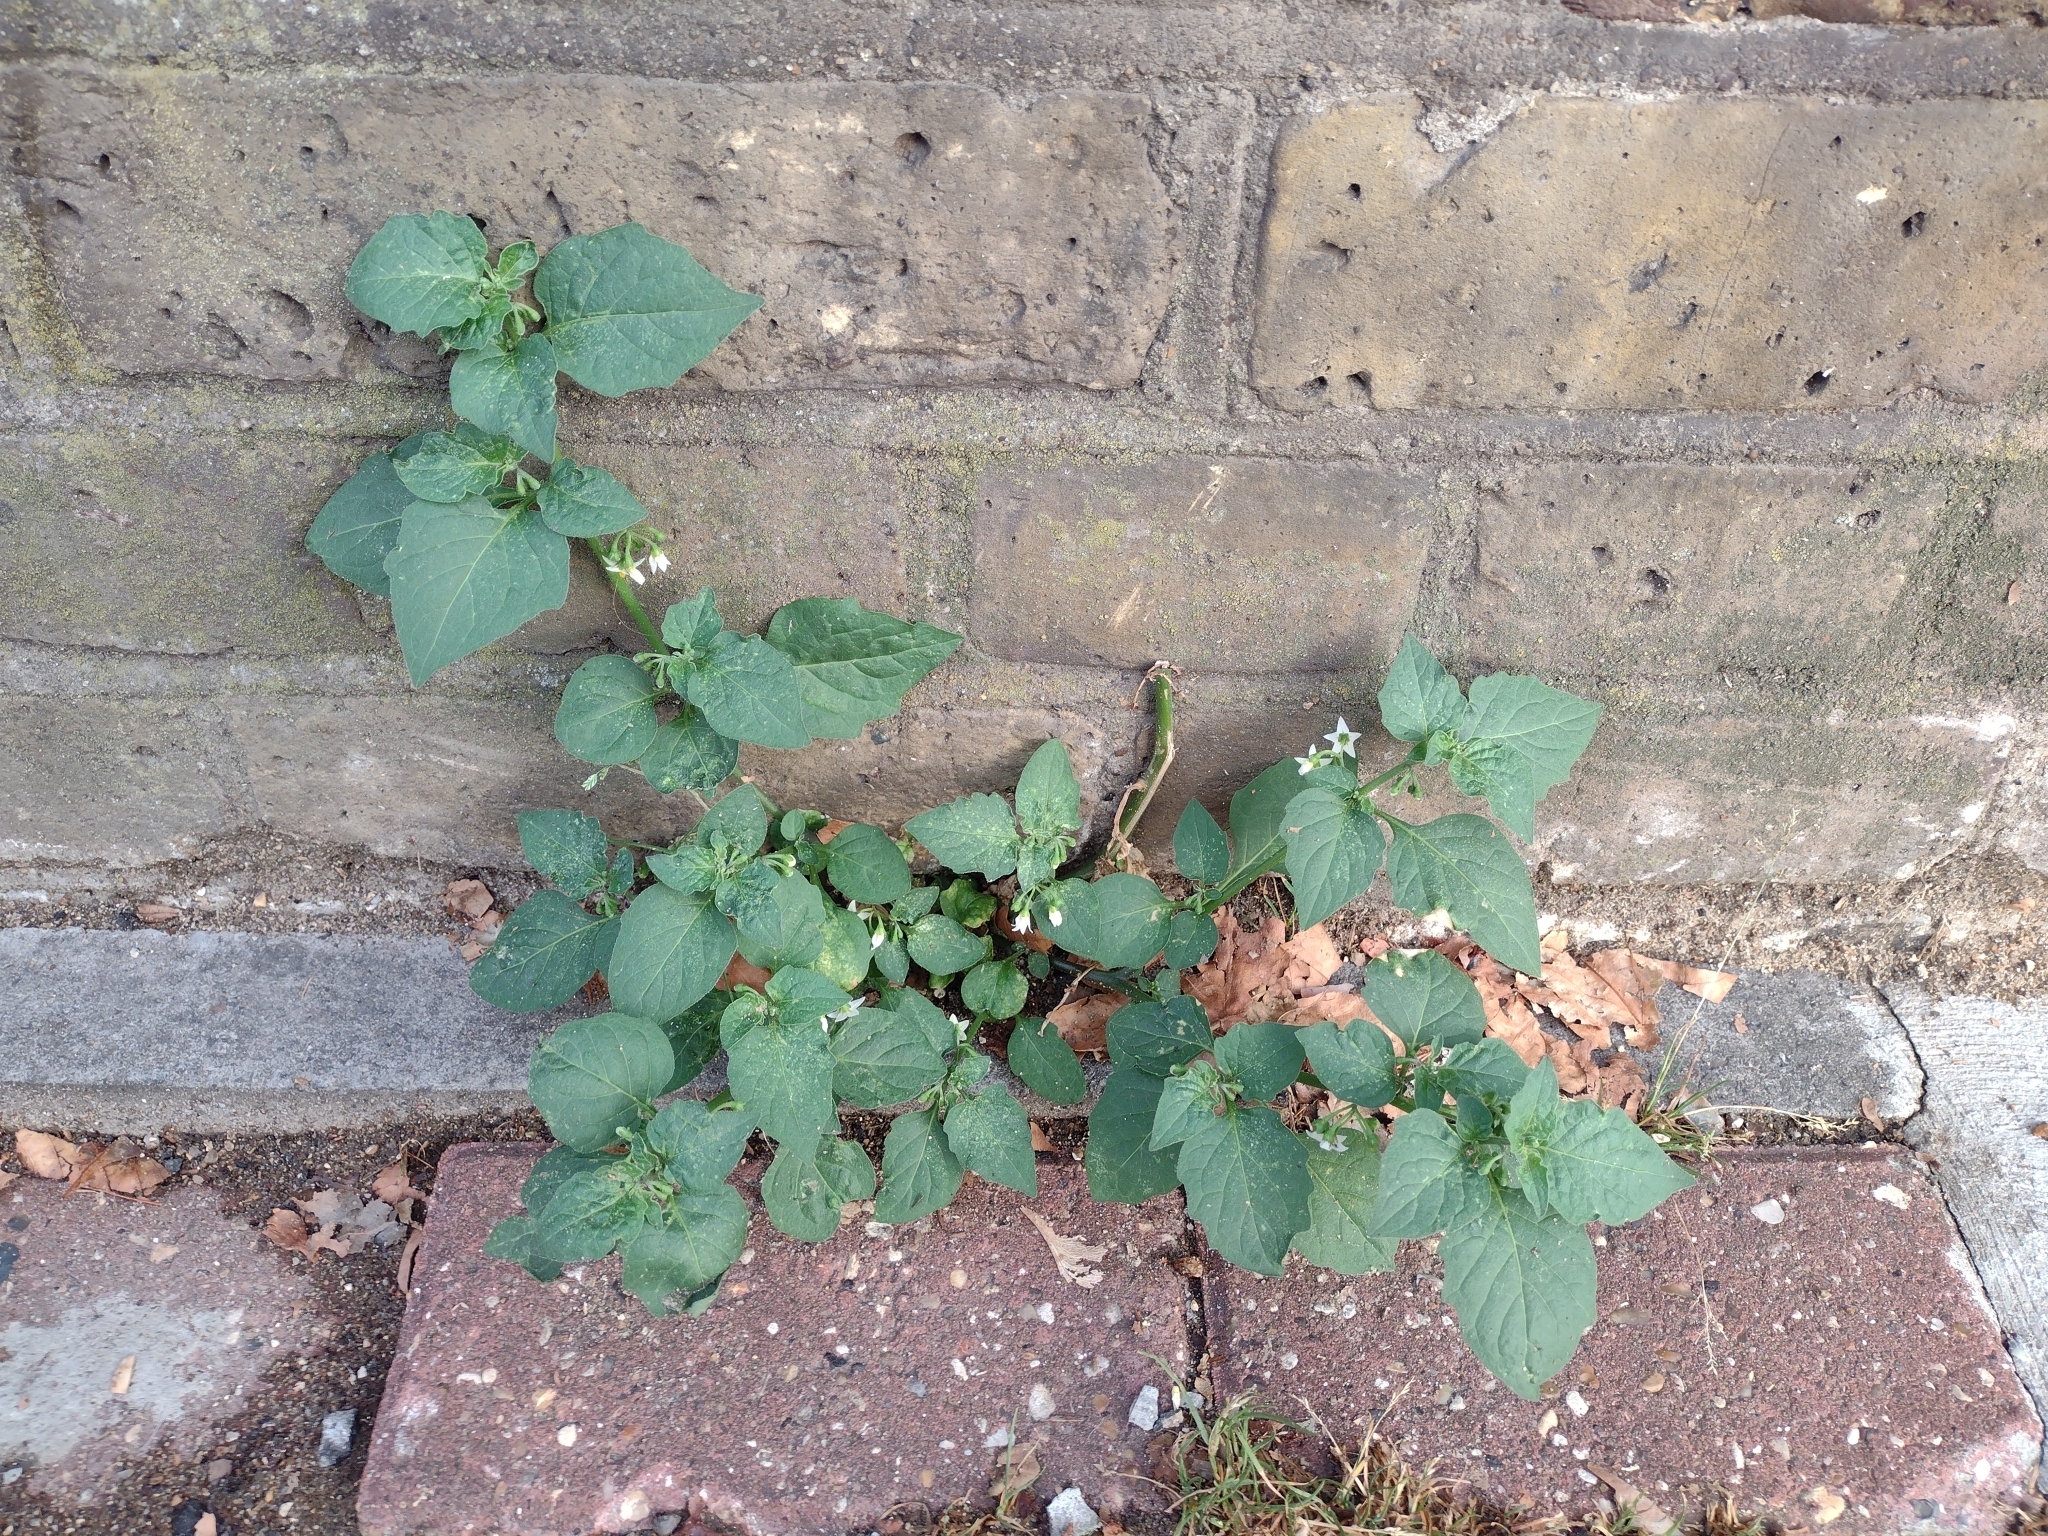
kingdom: Plantae
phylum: Tracheophyta
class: Magnoliopsida
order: Solanales
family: Solanaceae
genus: Solanum
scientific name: Solanum nigrum
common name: Black nightshade
